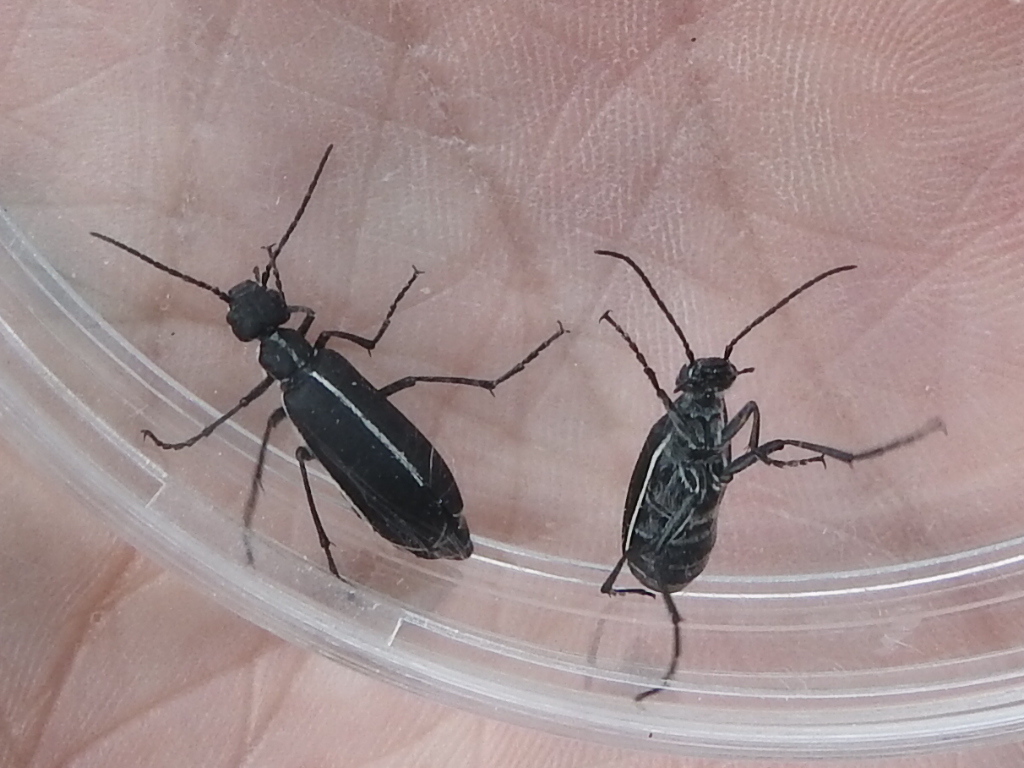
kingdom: Animalia
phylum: Arthropoda
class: Insecta
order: Coleoptera
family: Meloidae
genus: Epicauta
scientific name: Epicauta cinctipennis
